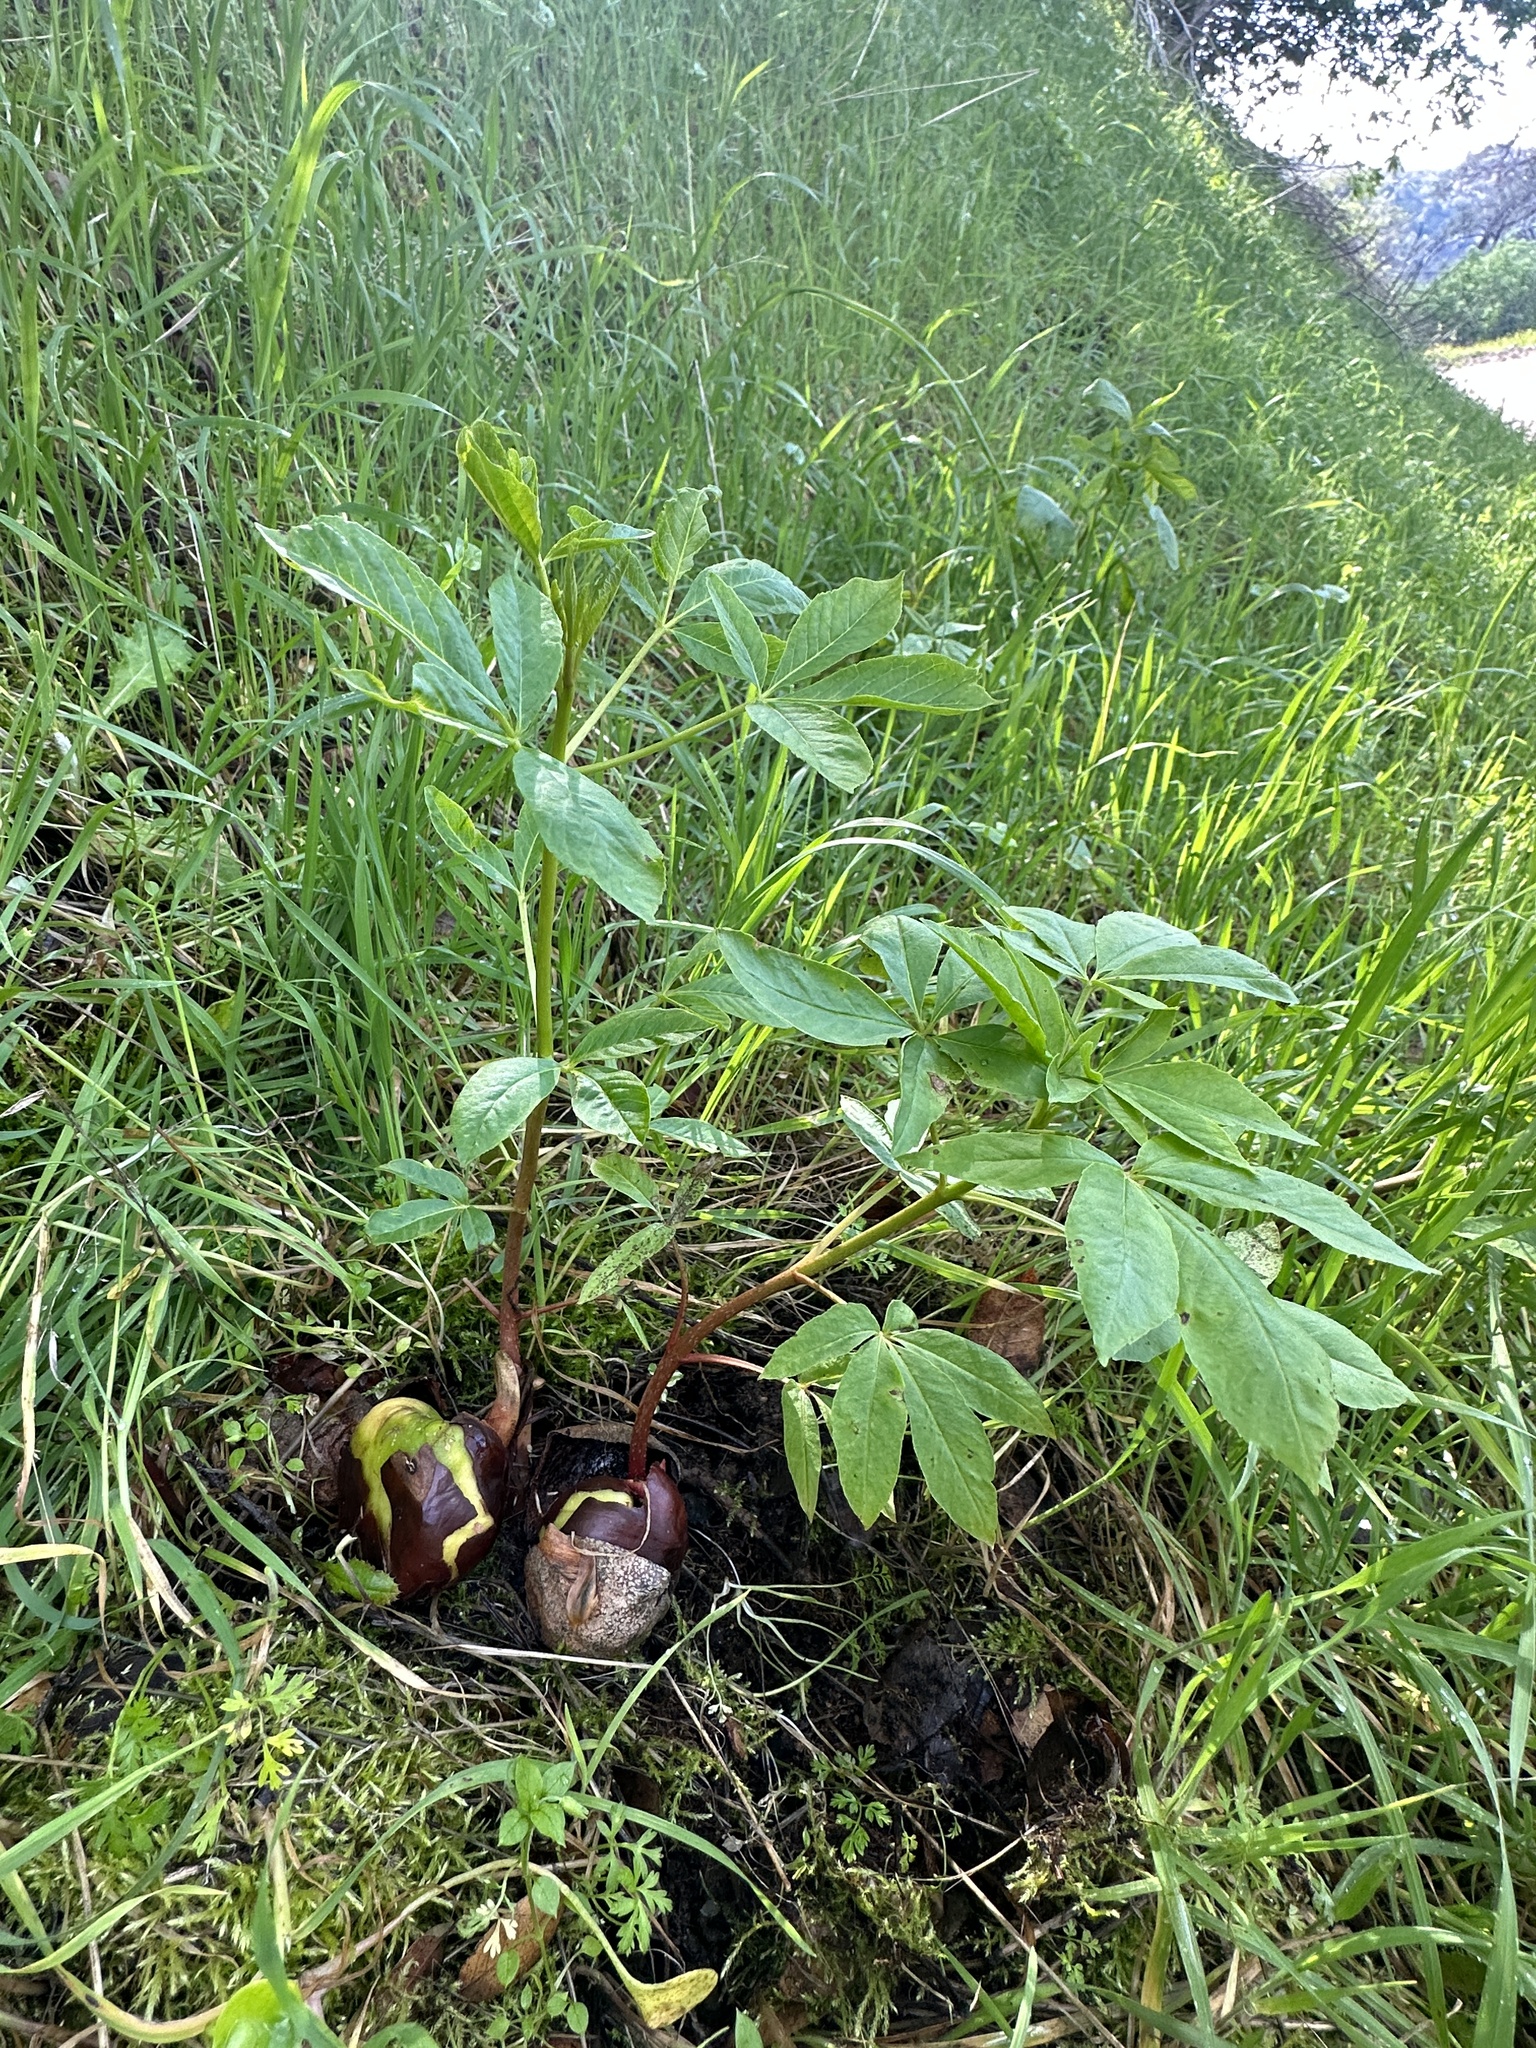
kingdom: Plantae
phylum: Tracheophyta
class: Magnoliopsida
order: Sapindales
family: Sapindaceae
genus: Aesculus
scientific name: Aesculus californica
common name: California buckeye
